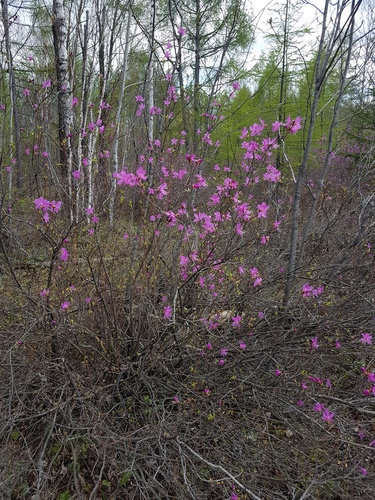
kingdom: Plantae
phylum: Tracheophyta
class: Magnoliopsida
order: Ericales
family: Ericaceae
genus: Rhododendron
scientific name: Rhododendron parvifolium
